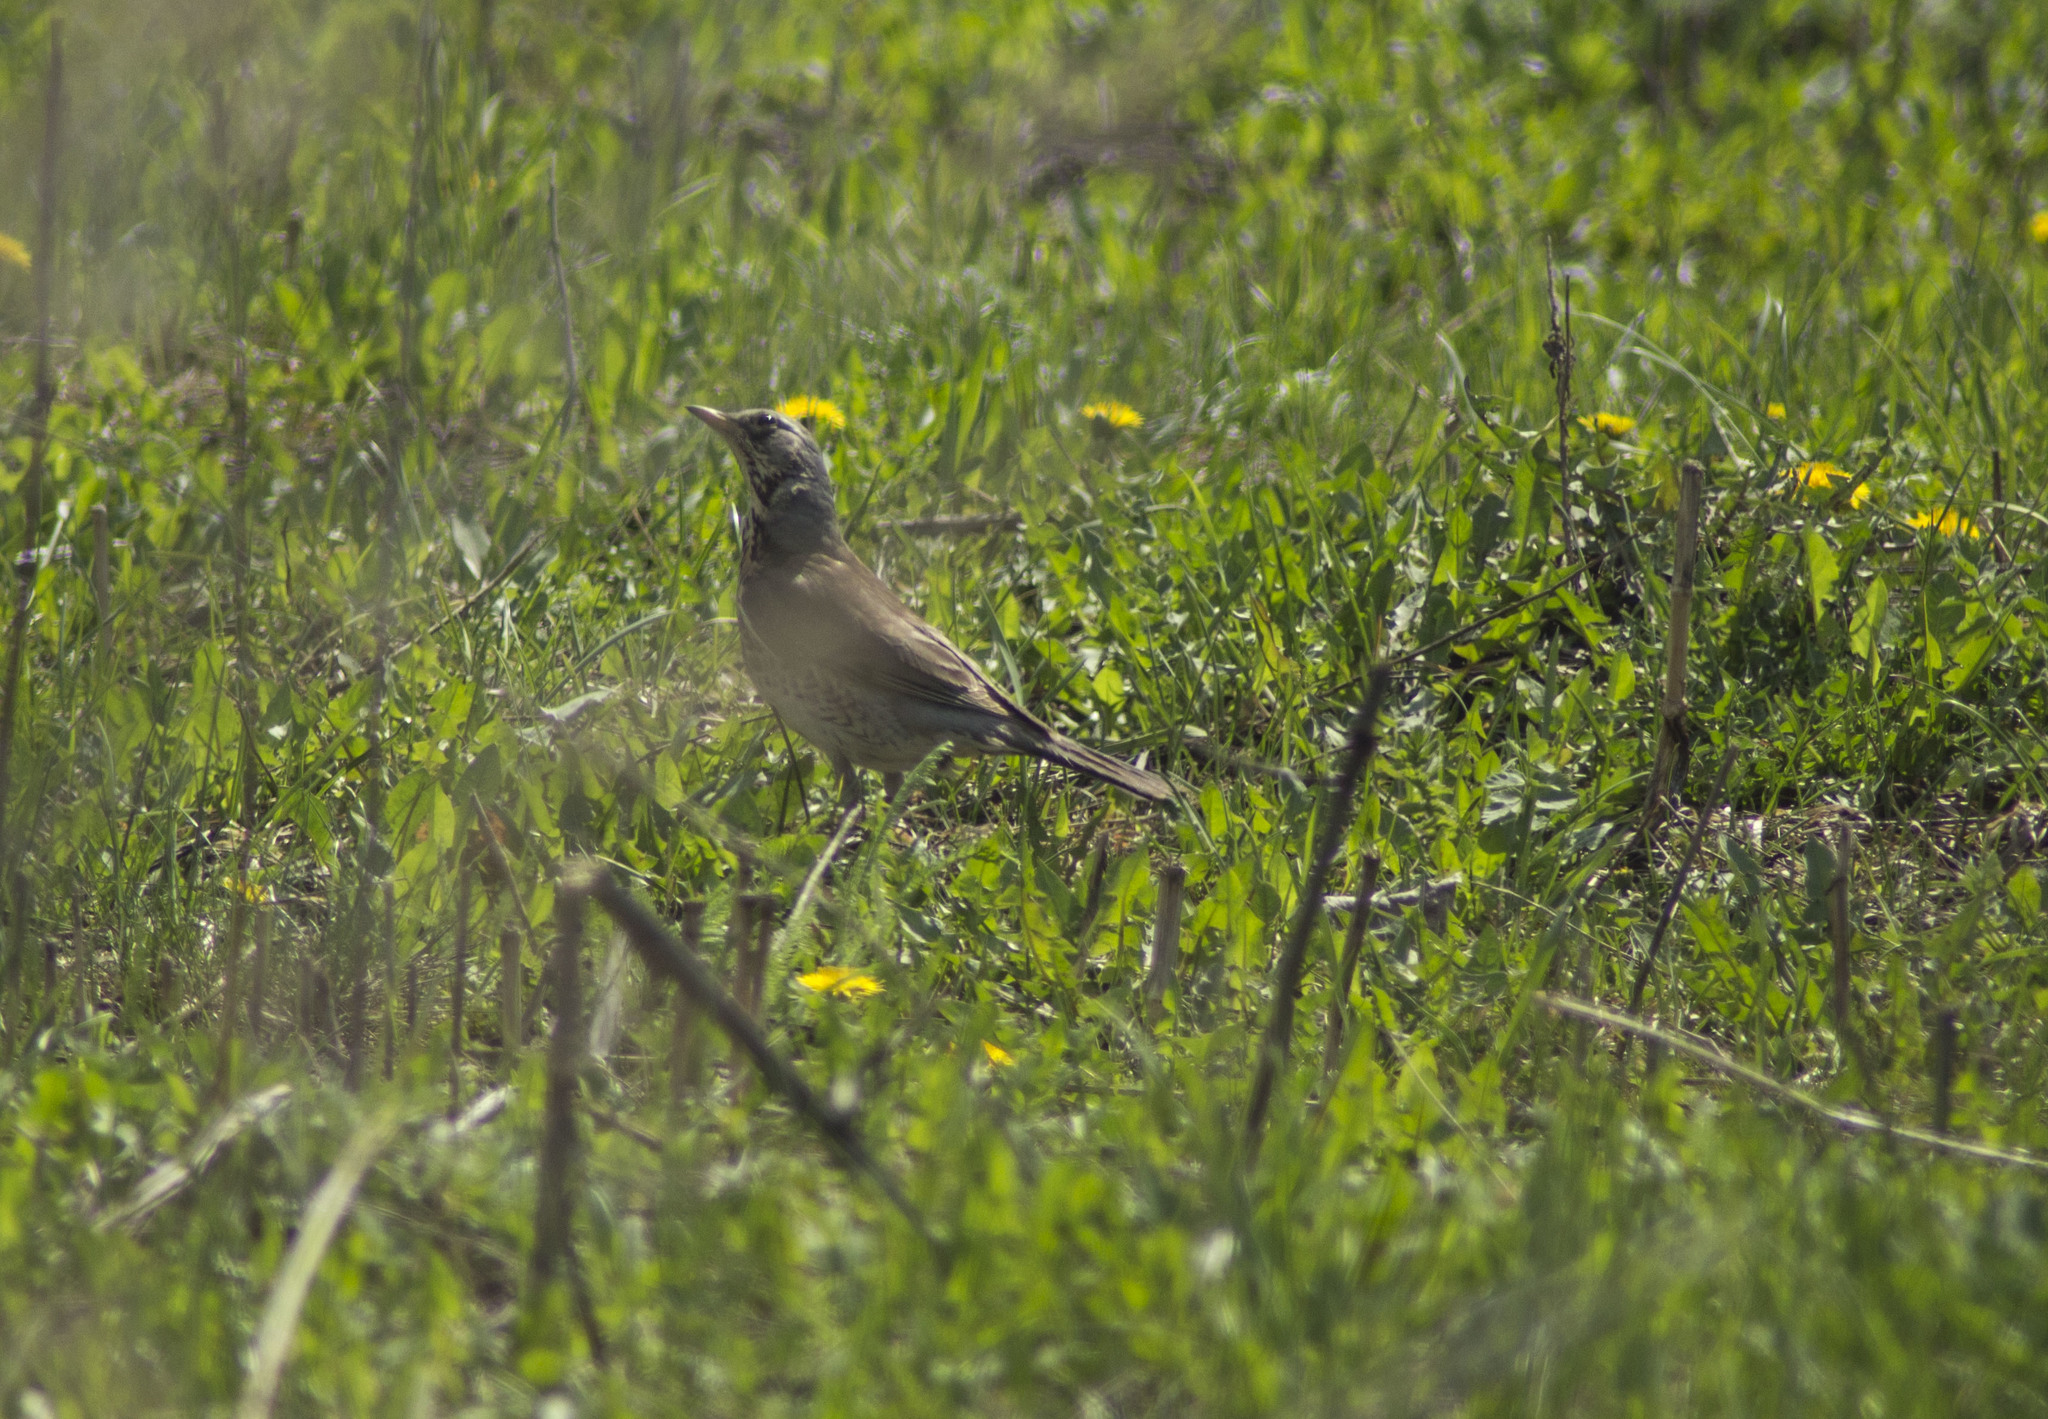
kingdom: Animalia
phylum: Chordata
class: Aves
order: Passeriformes
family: Turdidae
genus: Turdus
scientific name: Turdus pilaris
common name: Fieldfare
